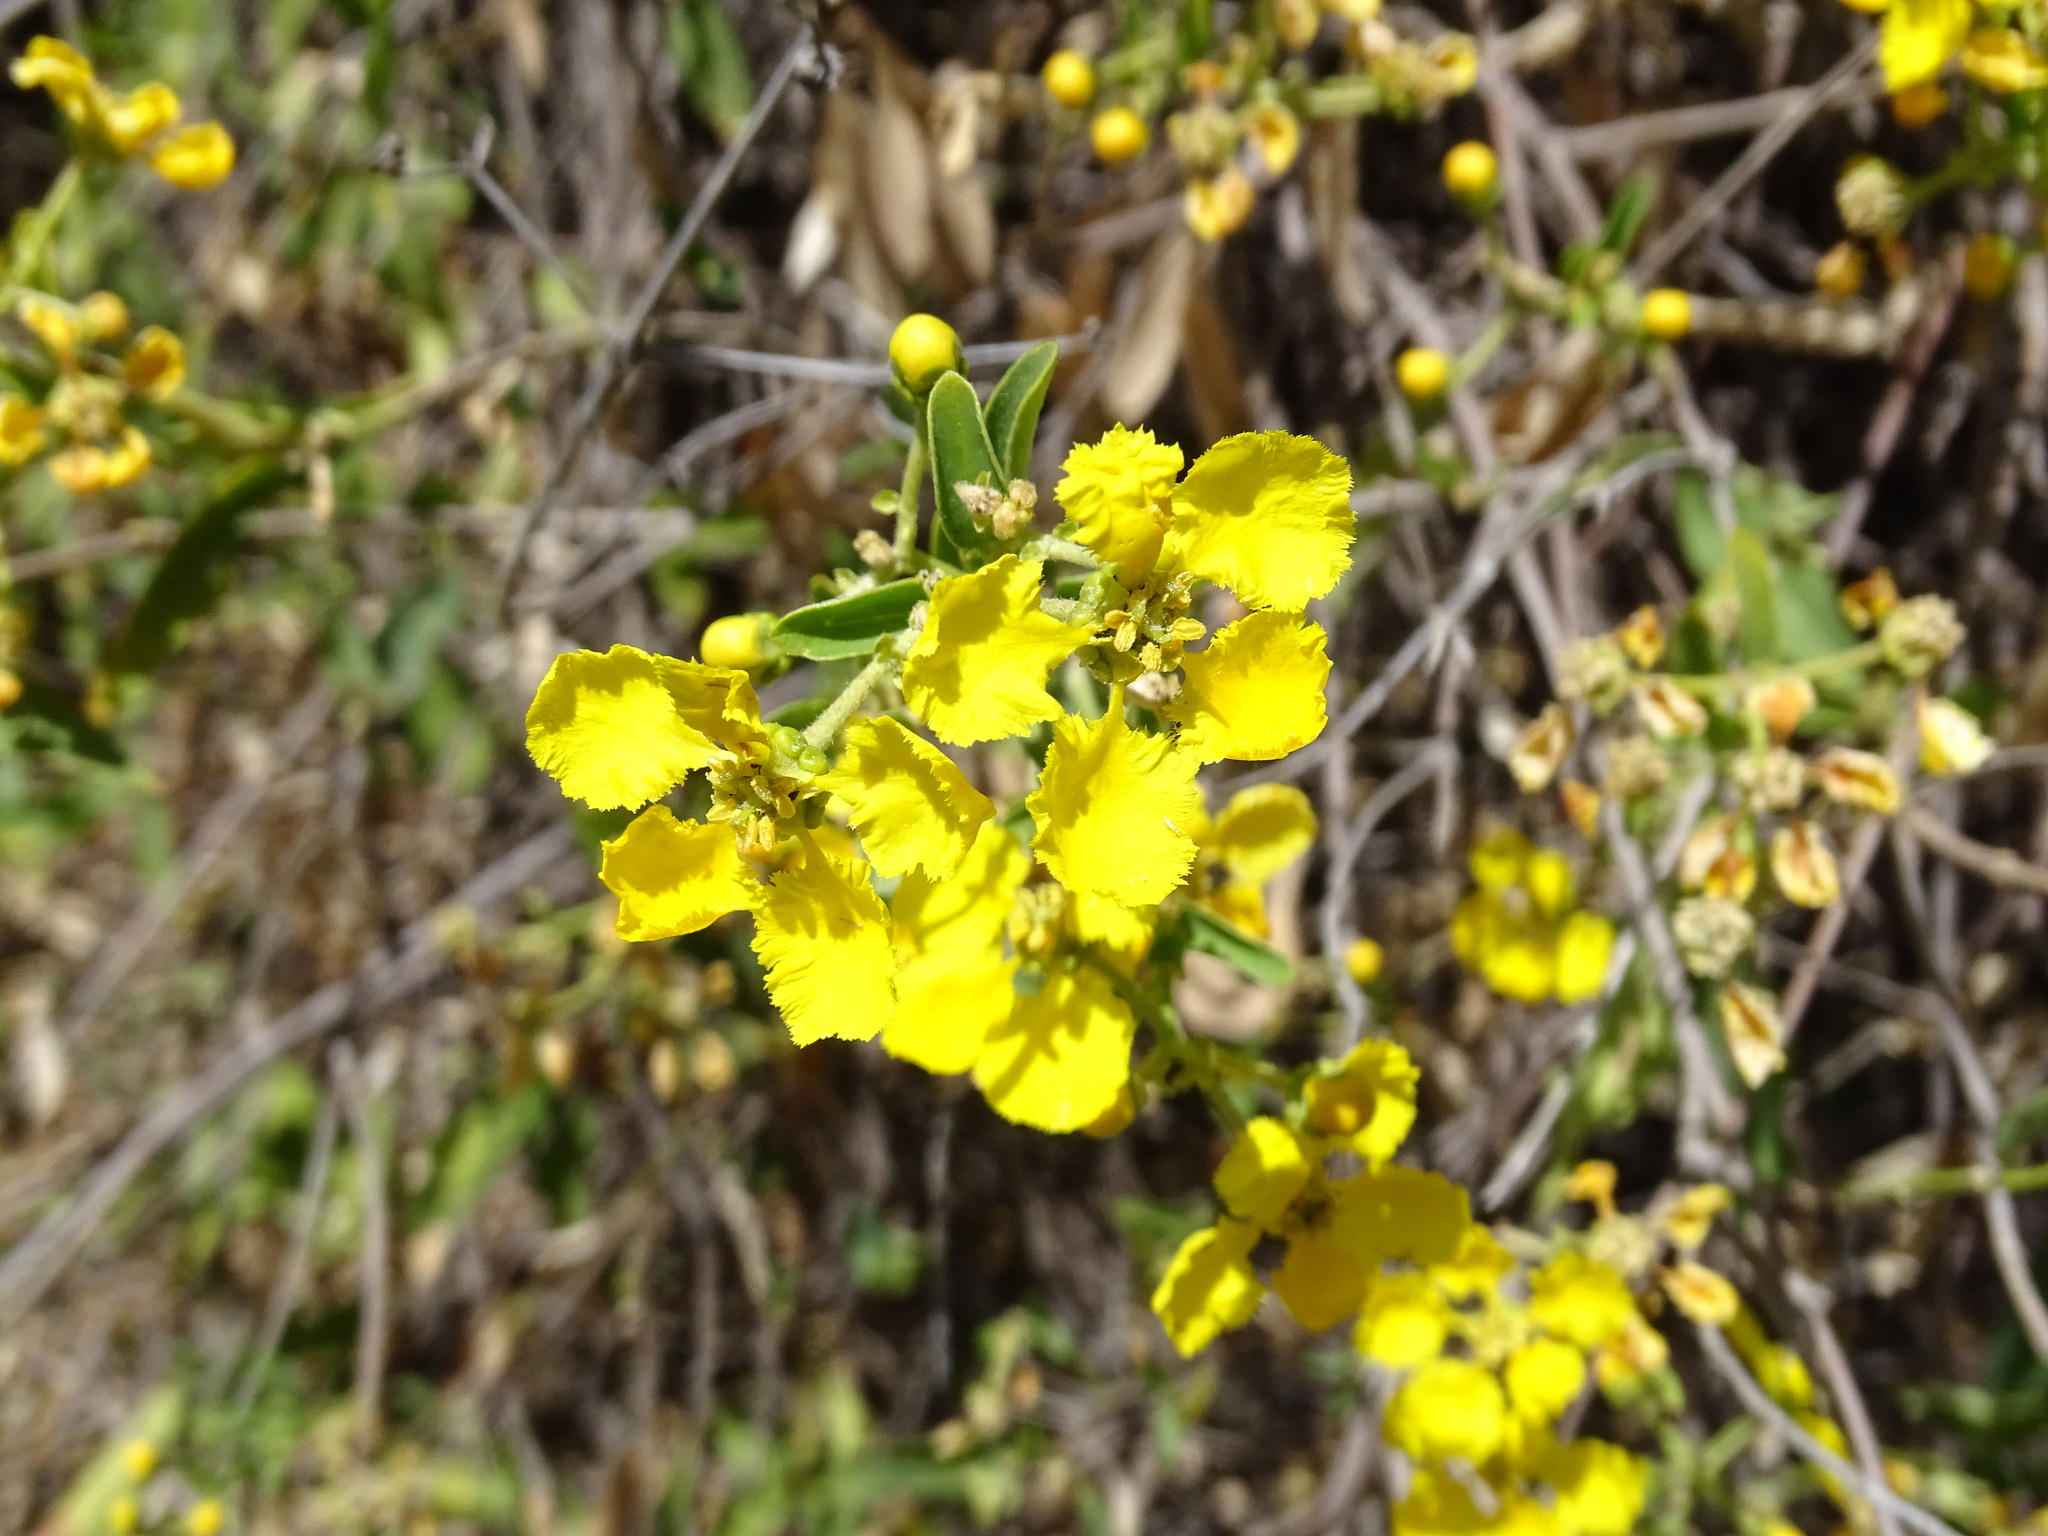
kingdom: Plantae
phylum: Tracheophyta
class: Magnoliopsida
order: Malpighiales
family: Malpighiaceae
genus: Callaeum
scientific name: Callaeum macropterum
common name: Mexican butterfly-vine
